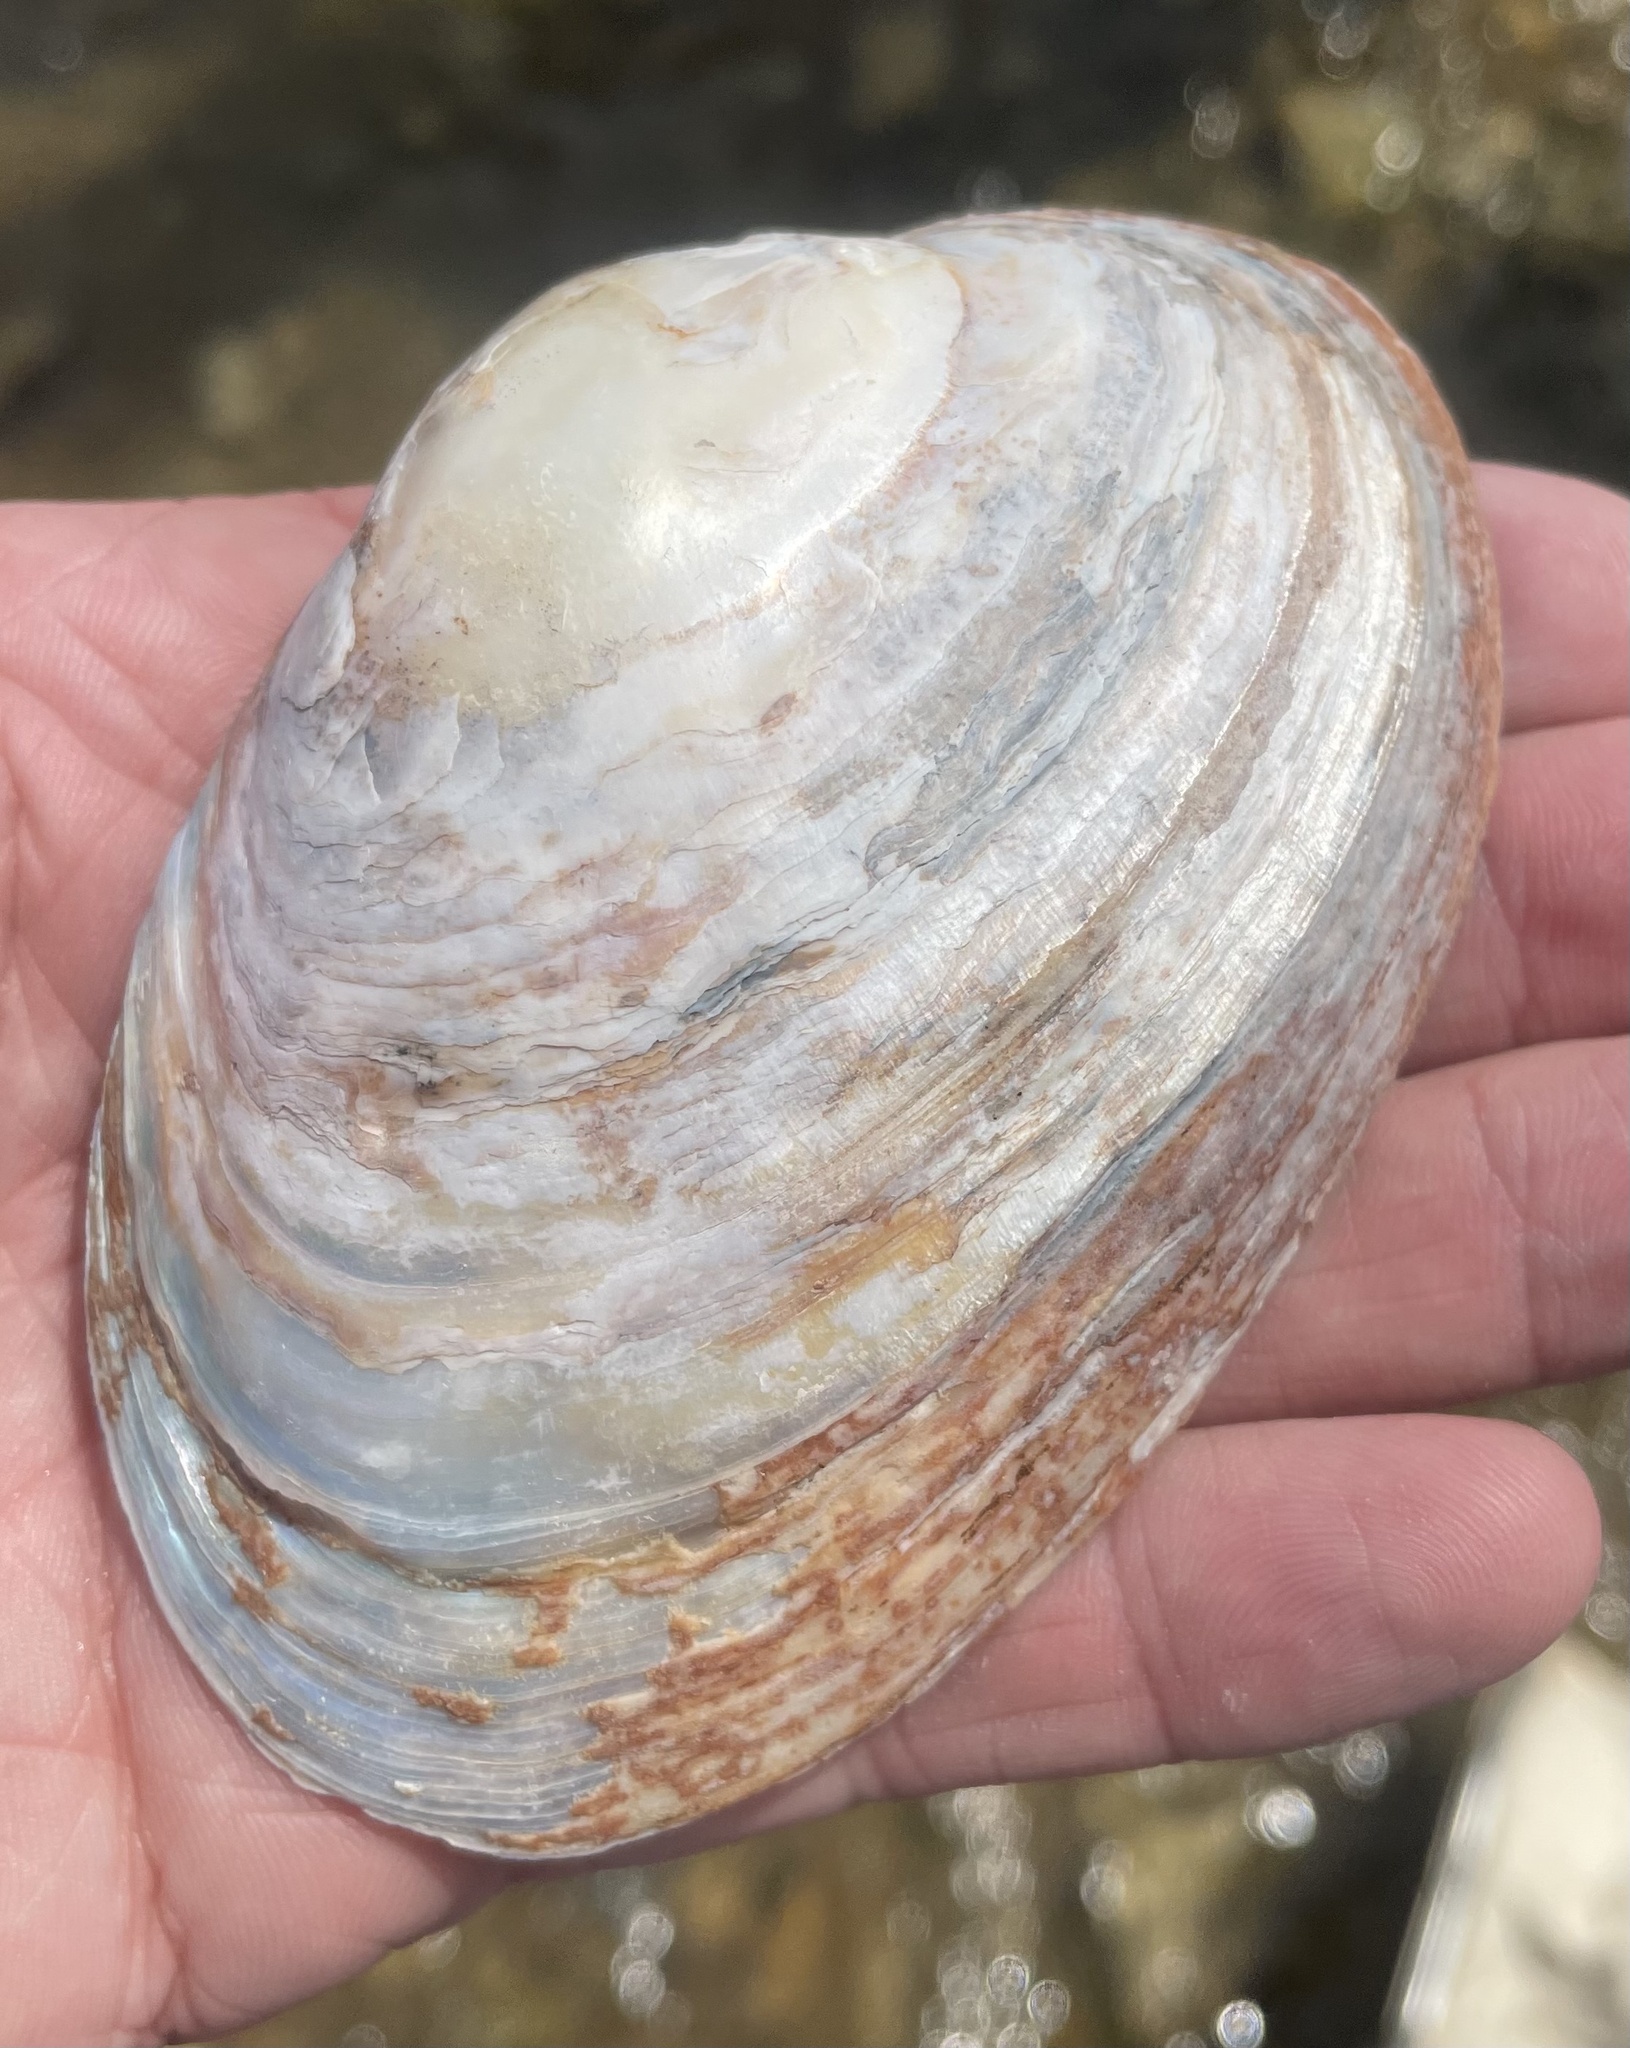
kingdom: Animalia
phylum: Mollusca
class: Bivalvia
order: Unionida
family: Unionidae
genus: Cyrtonaias
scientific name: Cyrtonaias tampicoensis
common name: Tampico pearlymussel
